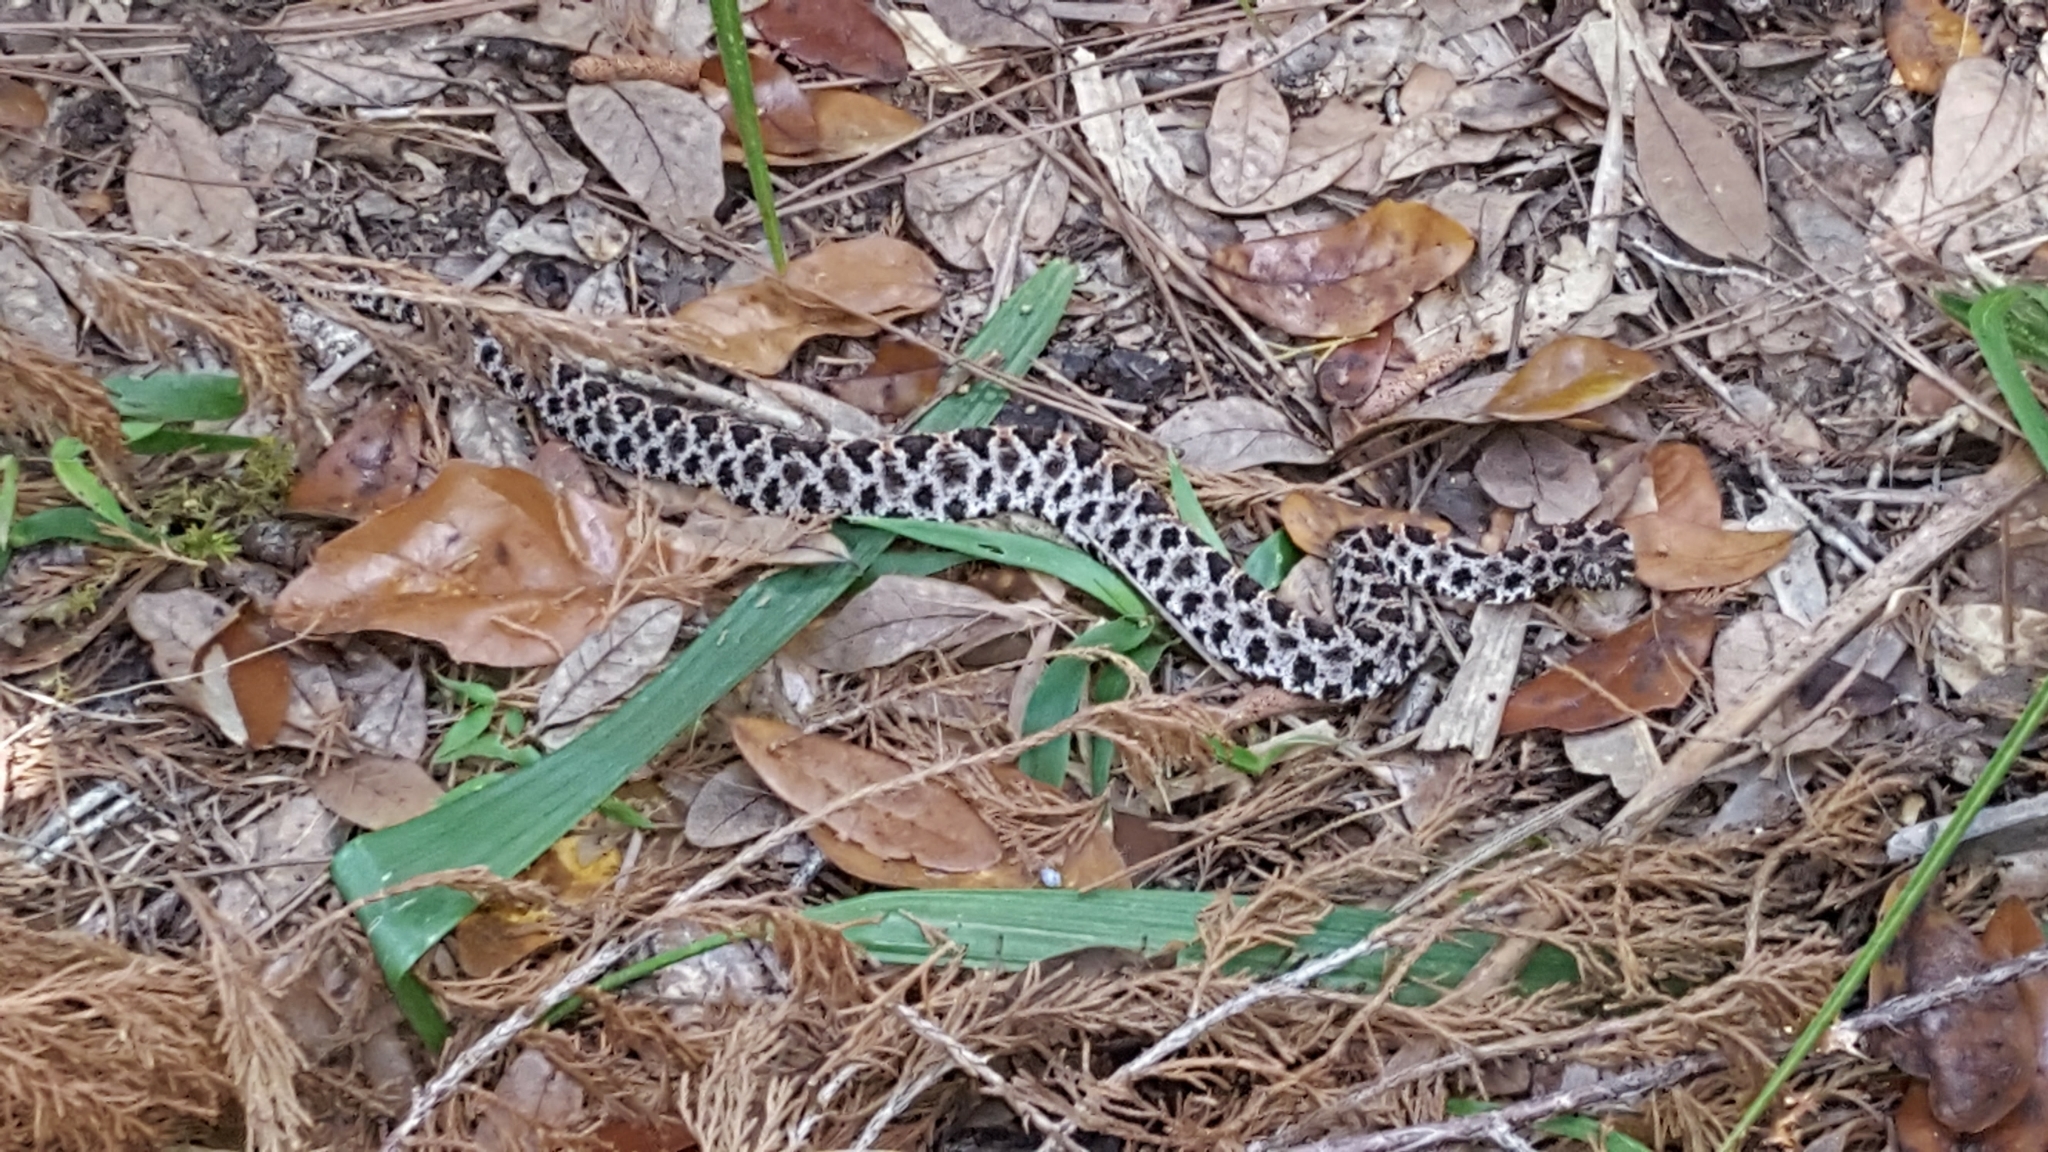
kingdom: Animalia
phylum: Chordata
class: Squamata
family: Viperidae
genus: Sistrurus
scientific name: Sistrurus miliarius
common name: Pygmy rattlesnake
